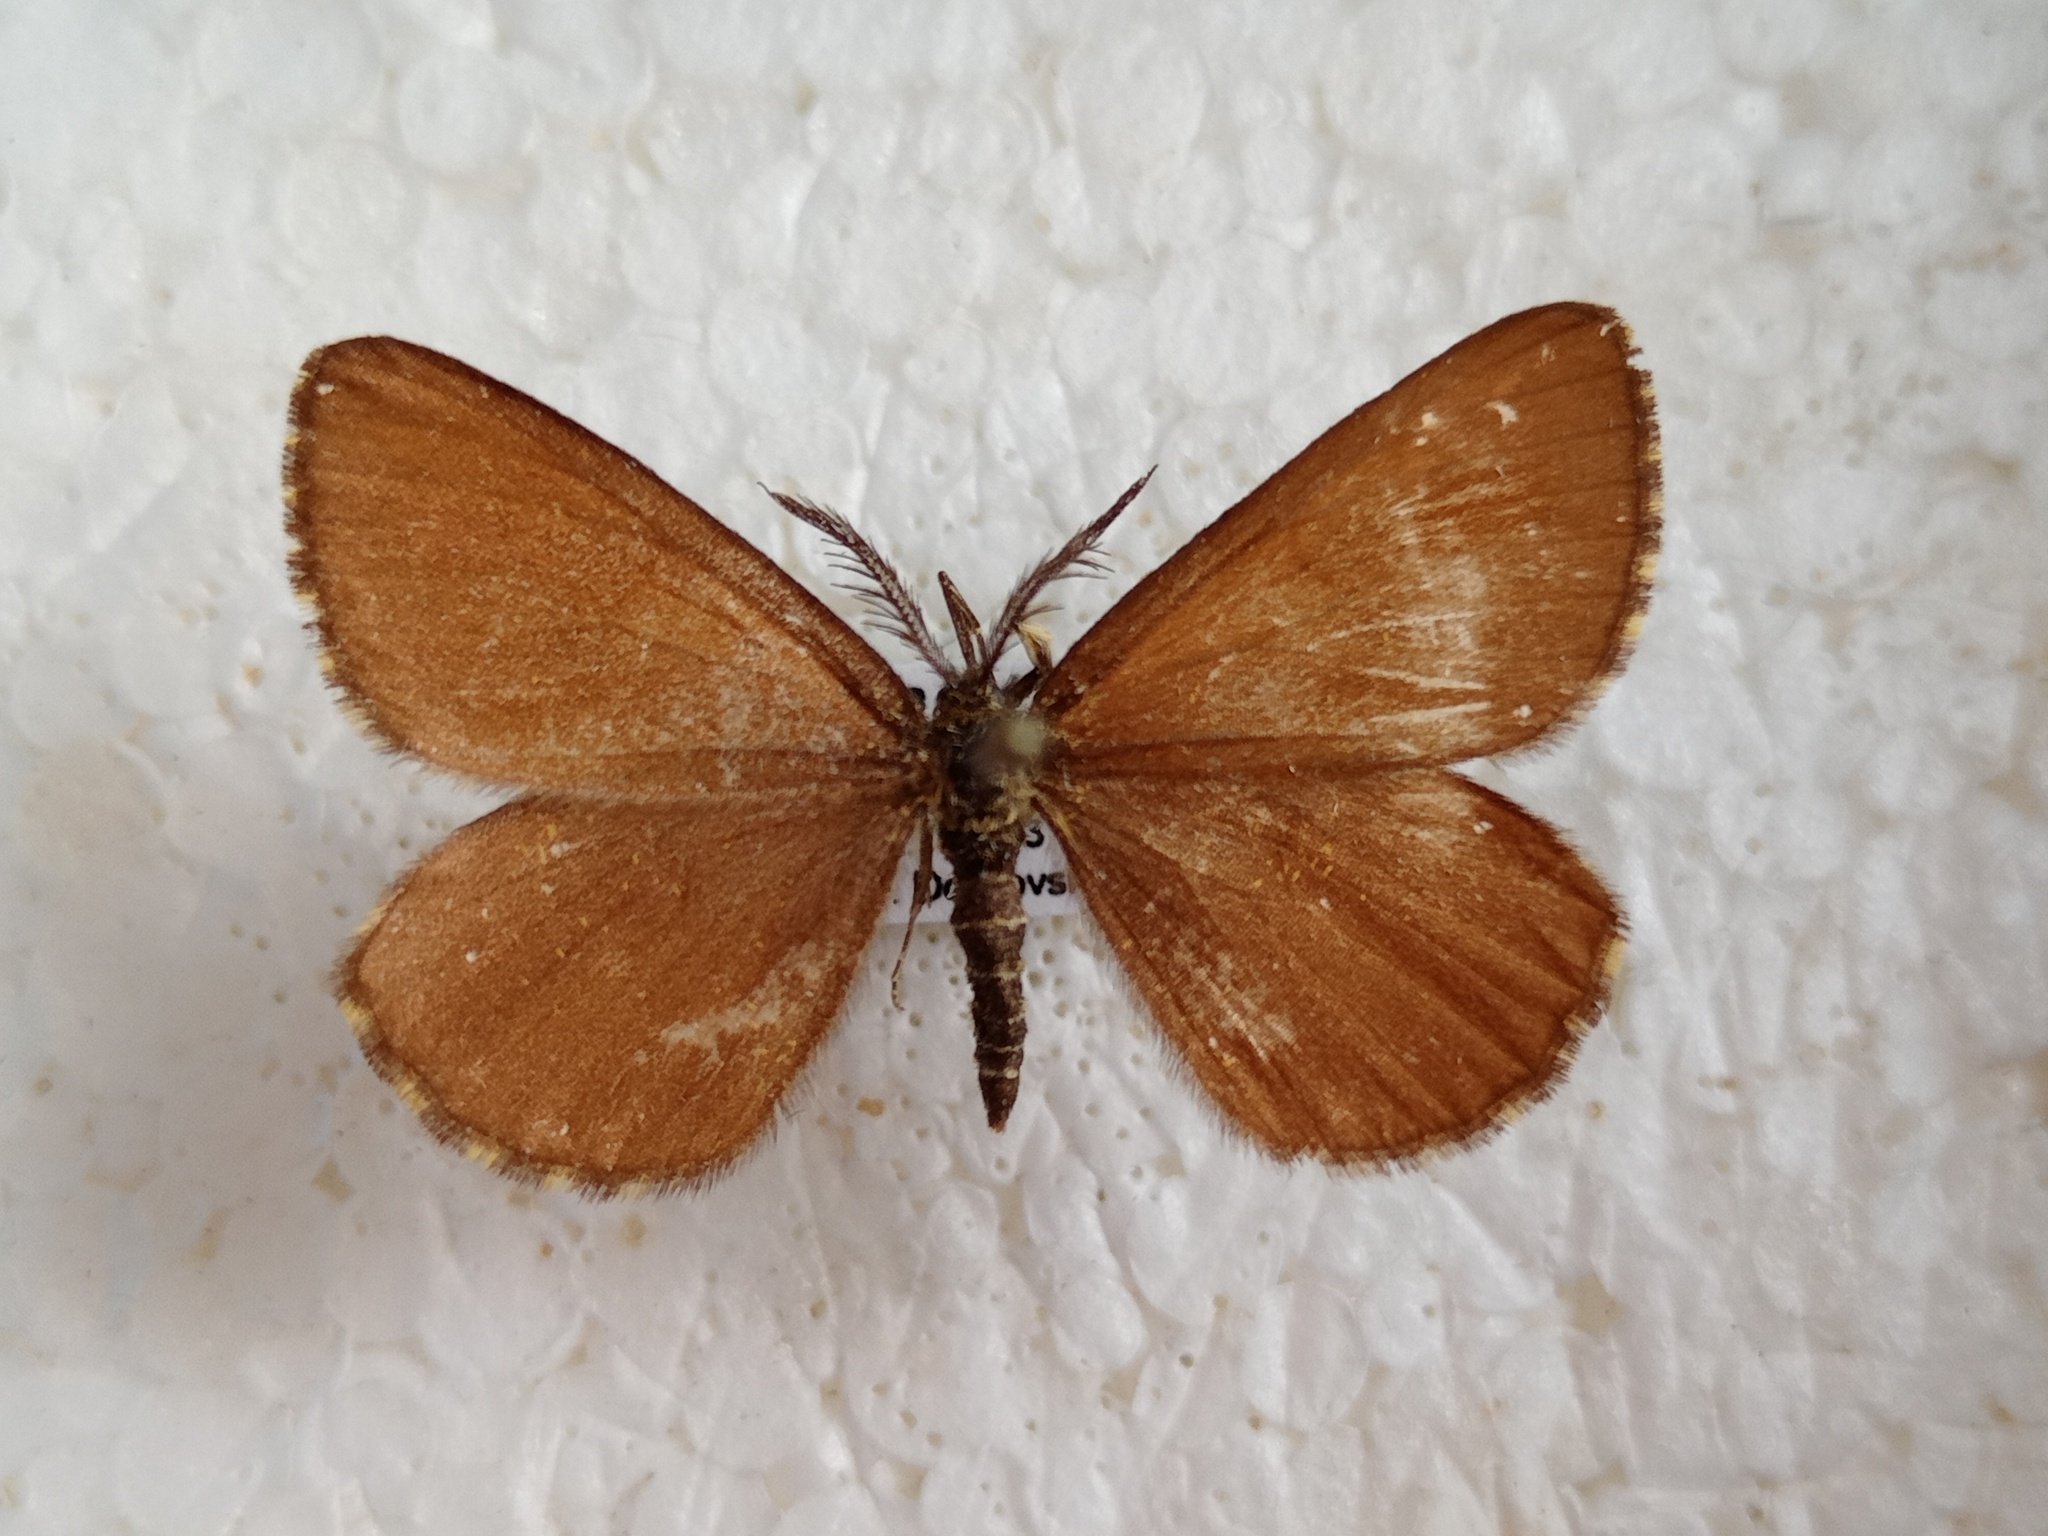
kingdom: Animalia
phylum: Arthropoda
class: Insecta
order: Lepidoptera
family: Geometridae
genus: Ematurga
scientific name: Ematurga atomaria
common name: Common heath
